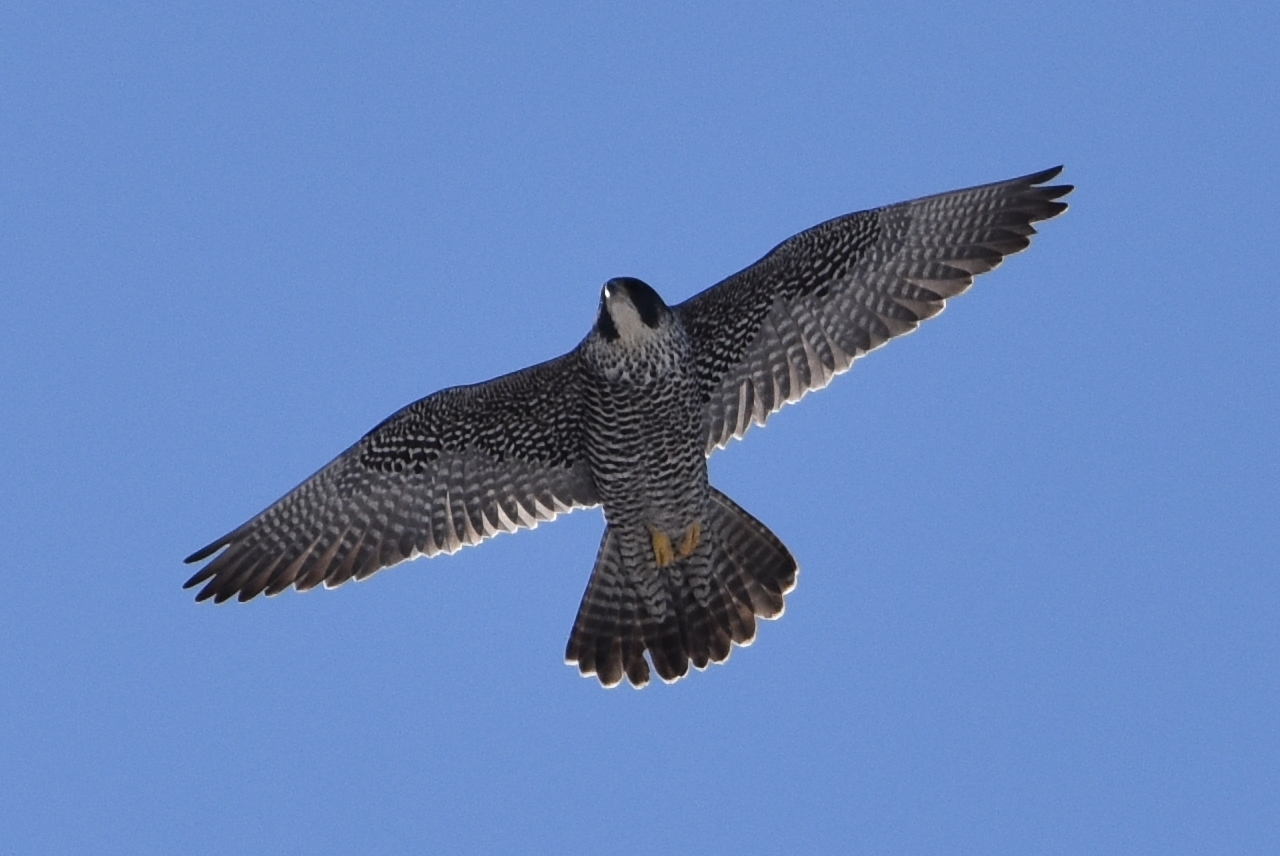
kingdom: Animalia
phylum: Chordata
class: Aves
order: Falconiformes
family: Falconidae
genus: Falco
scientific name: Falco peregrinus
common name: Peregrine falcon
